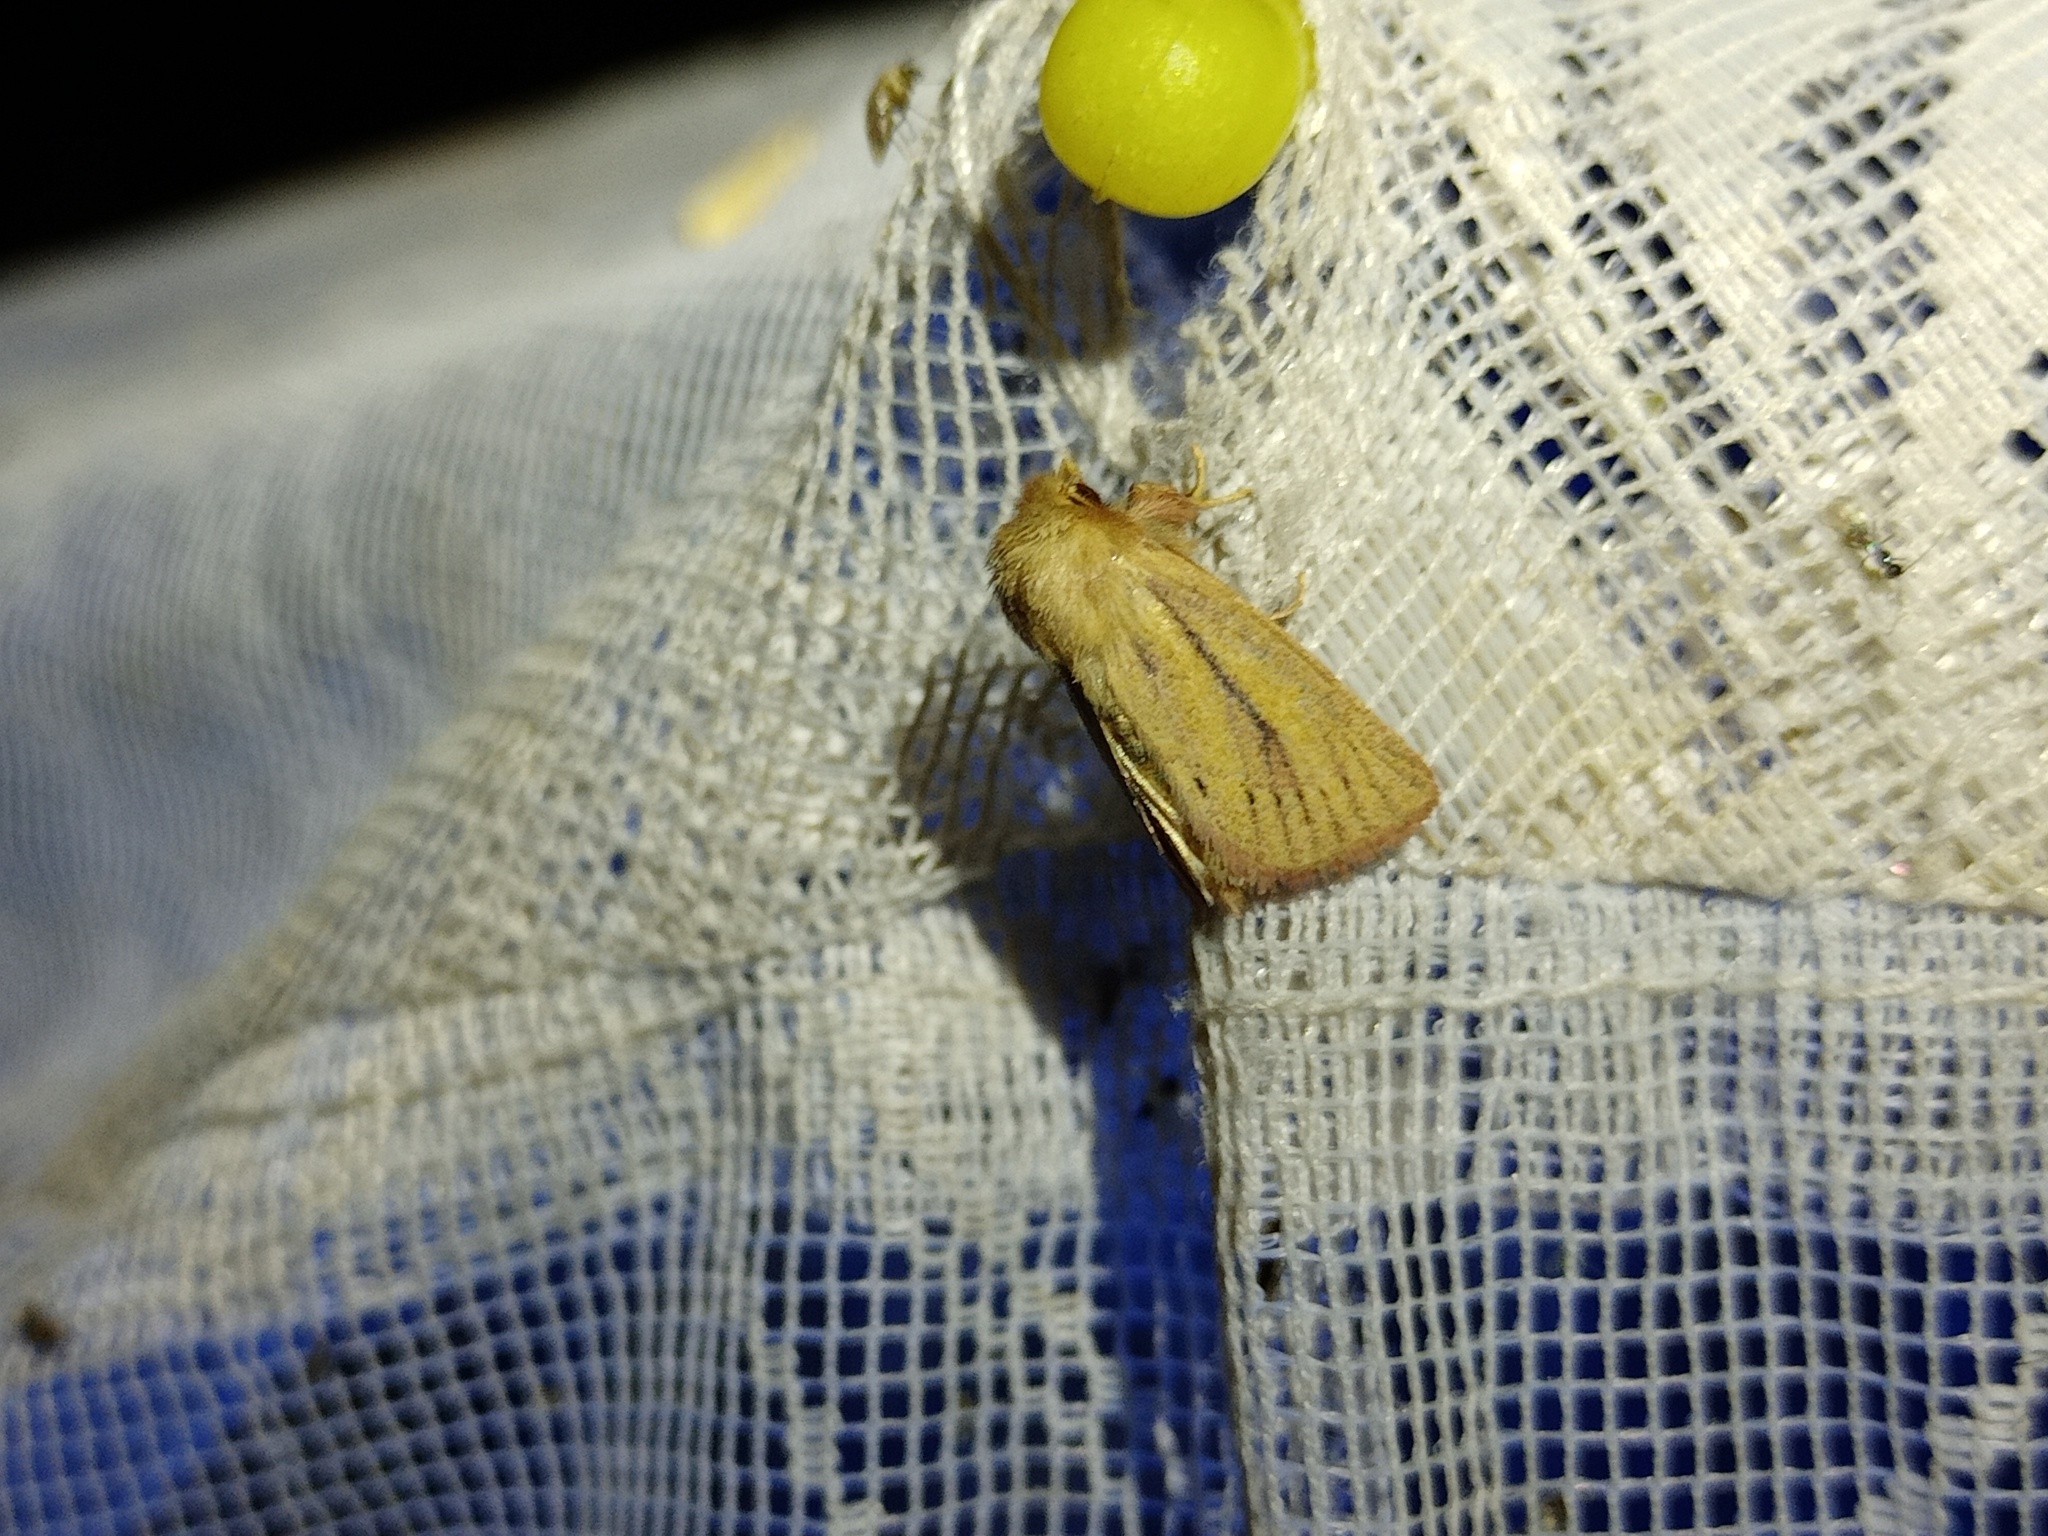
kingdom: Animalia
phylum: Arthropoda
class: Insecta
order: Lepidoptera
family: Noctuidae
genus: Denticucullus
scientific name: Denticucullus pygmina
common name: Small wainscot
